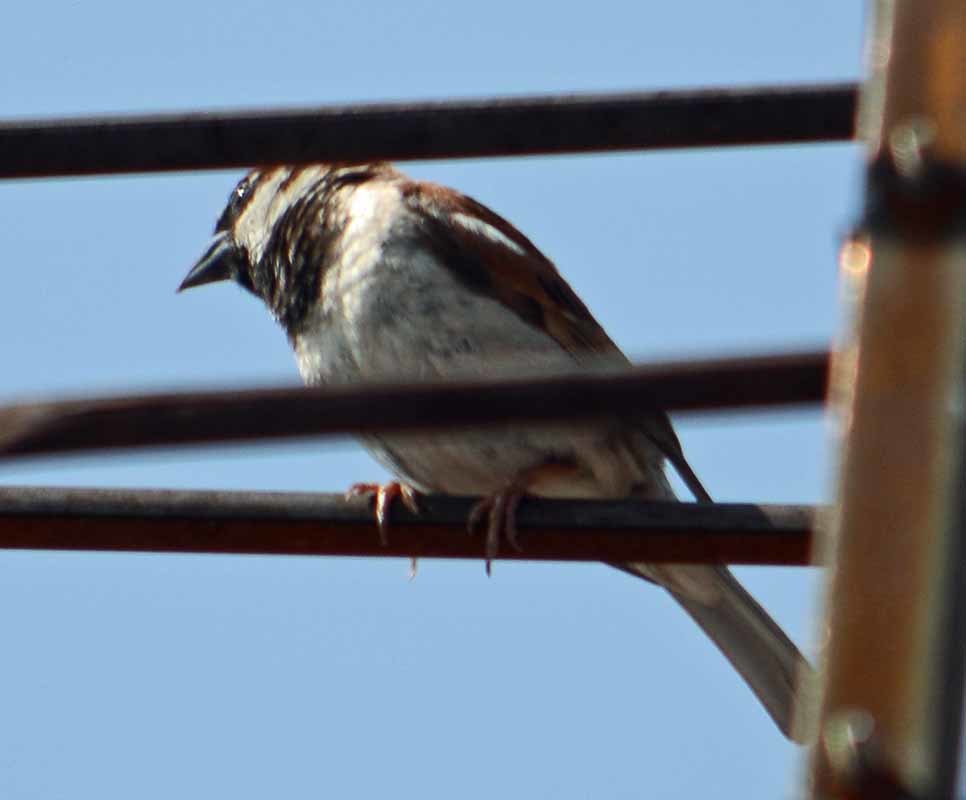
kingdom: Animalia
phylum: Chordata
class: Aves
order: Passeriformes
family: Passeridae
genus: Passer
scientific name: Passer domesticus
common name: House sparrow
